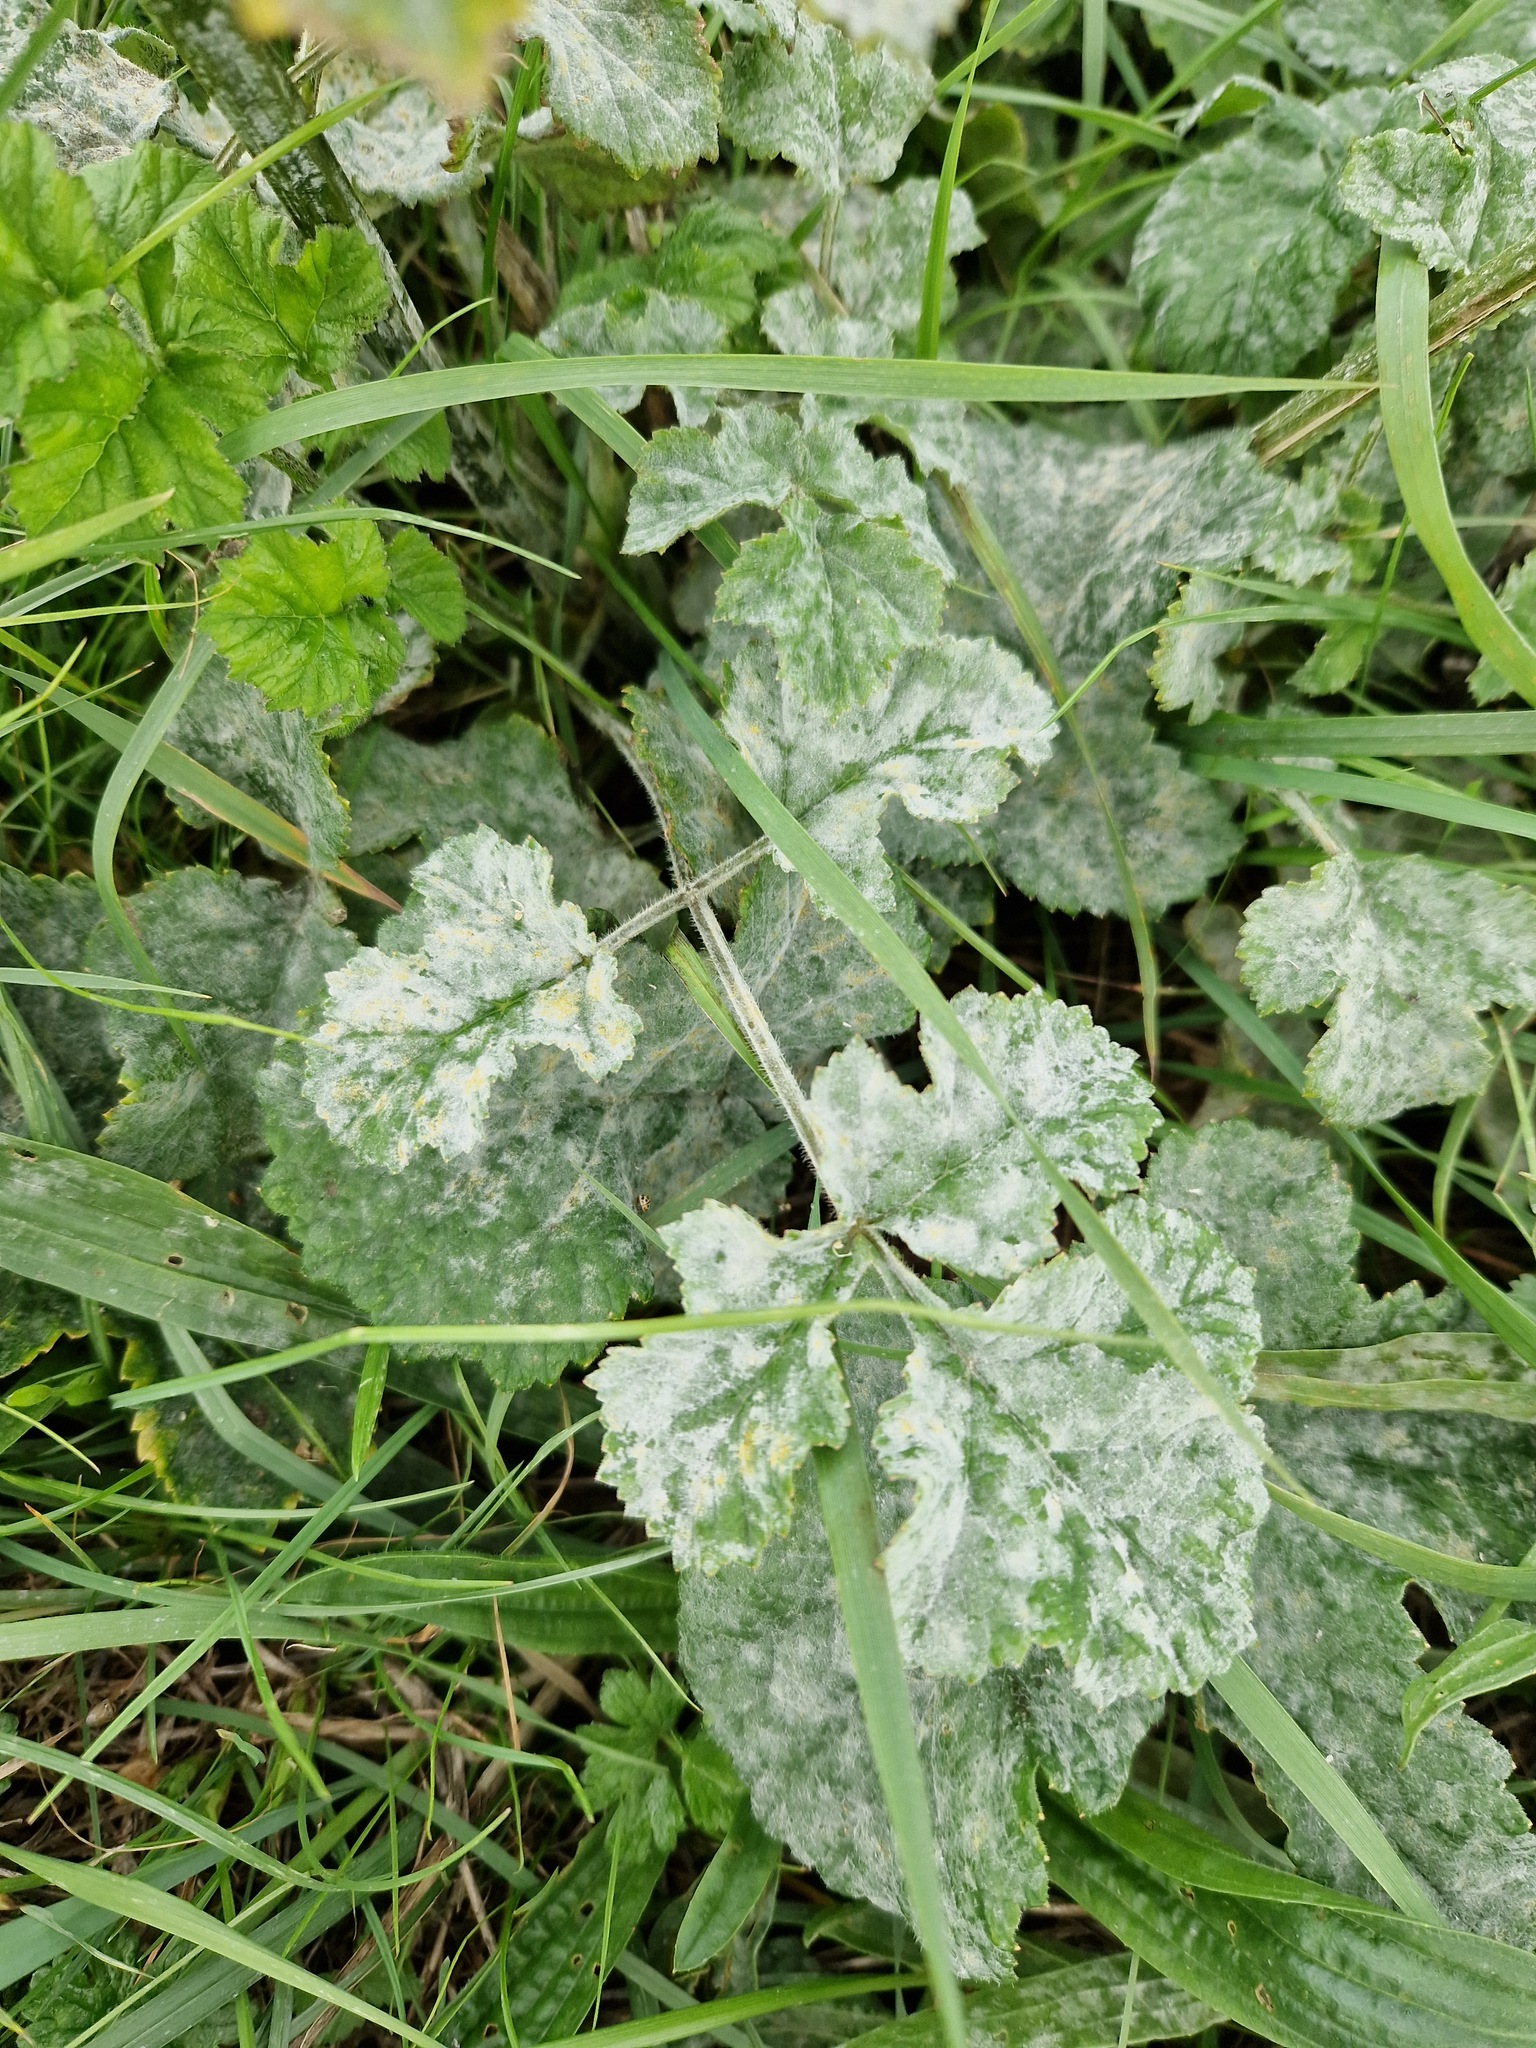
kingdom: Fungi
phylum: Ascomycota
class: Leotiomycetes
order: Helotiales
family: Erysiphaceae
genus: Erysiphe
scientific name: Erysiphe heraclei
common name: Umbellifer mildew
